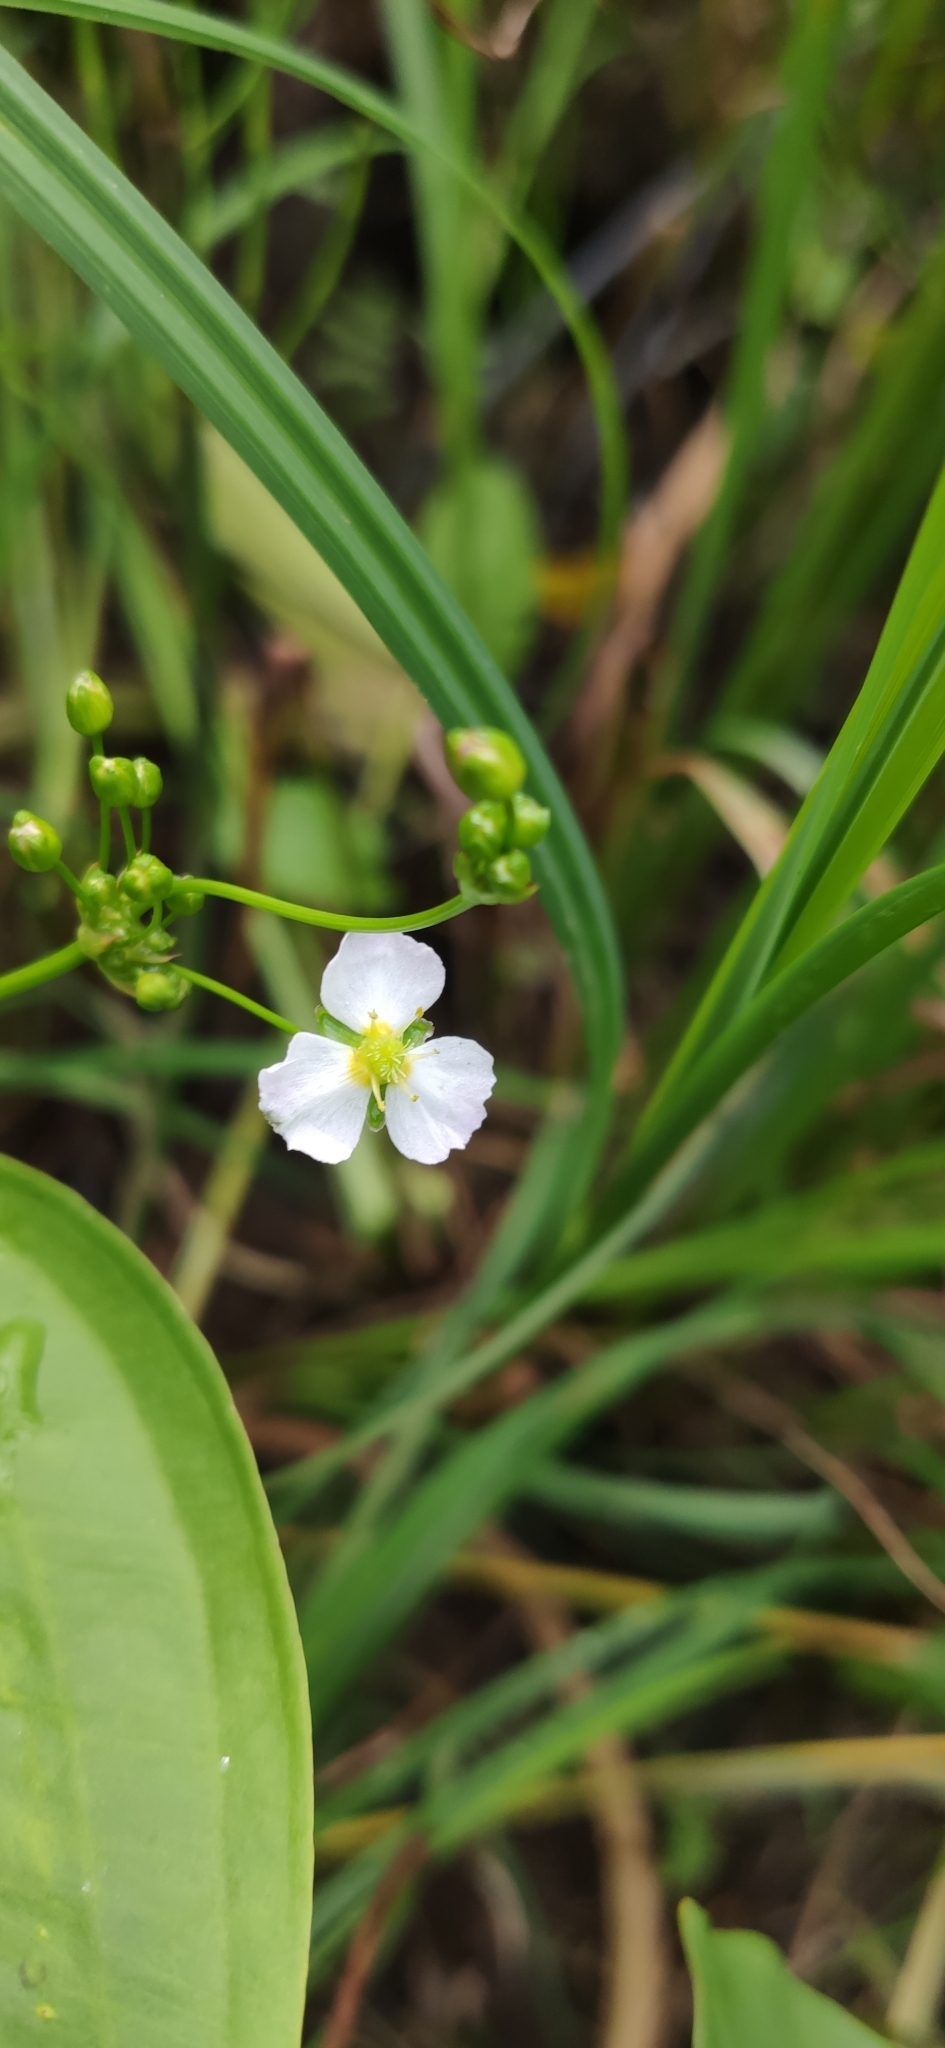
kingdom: Plantae
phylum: Tracheophyta
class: Liliopsida
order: Alismatales
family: Alismataceae
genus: Alisma
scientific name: Alisma plantago-aquatica
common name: Water-plantain
